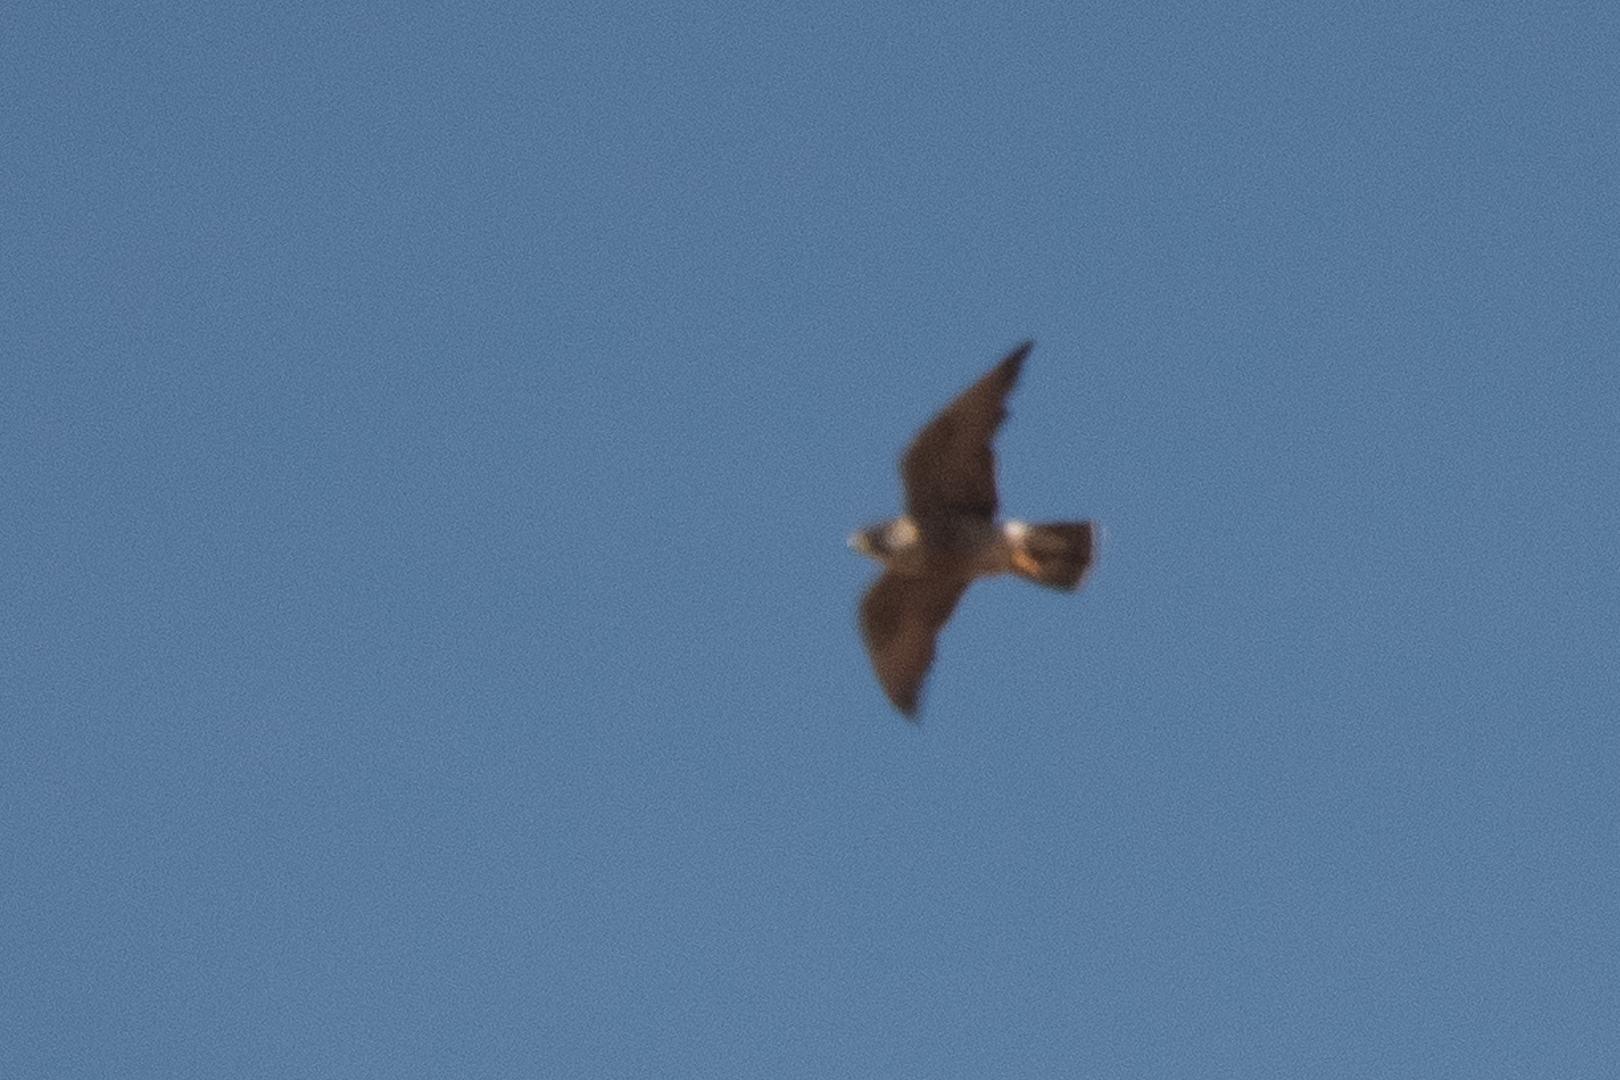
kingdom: Animalia
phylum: Chordata
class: Aves
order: Falconiformes
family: Falconidae
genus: Falco
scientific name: Falco peregrinus
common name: Peregrine falcon
